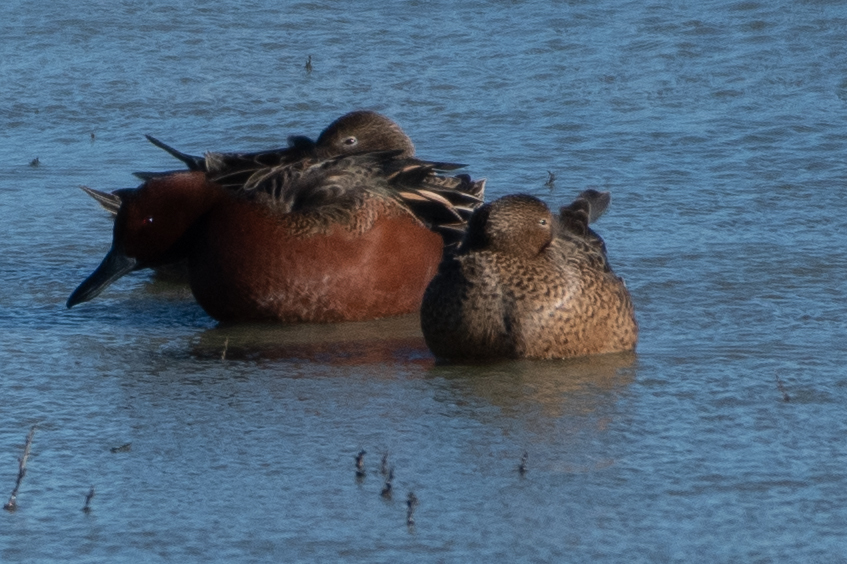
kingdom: Animalia
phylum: Chordata
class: Aves
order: Anseriformes
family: Anatidae
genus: Spatula
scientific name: Spatula cyanoptera
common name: Cinnamon teal
